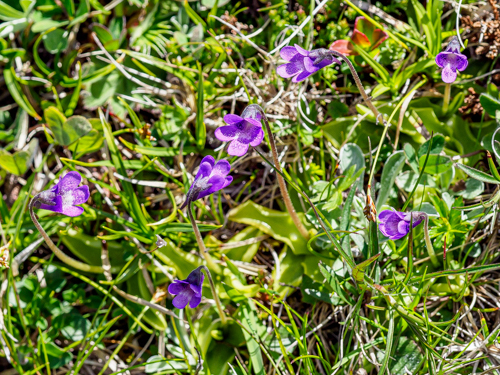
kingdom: Plantae
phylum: Tracheophyta
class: Magnoliopsida
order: Lamiales
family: Lentibulariaceae
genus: Pinguicula
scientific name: Pinguicula vulgaris
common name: Common butterwort
